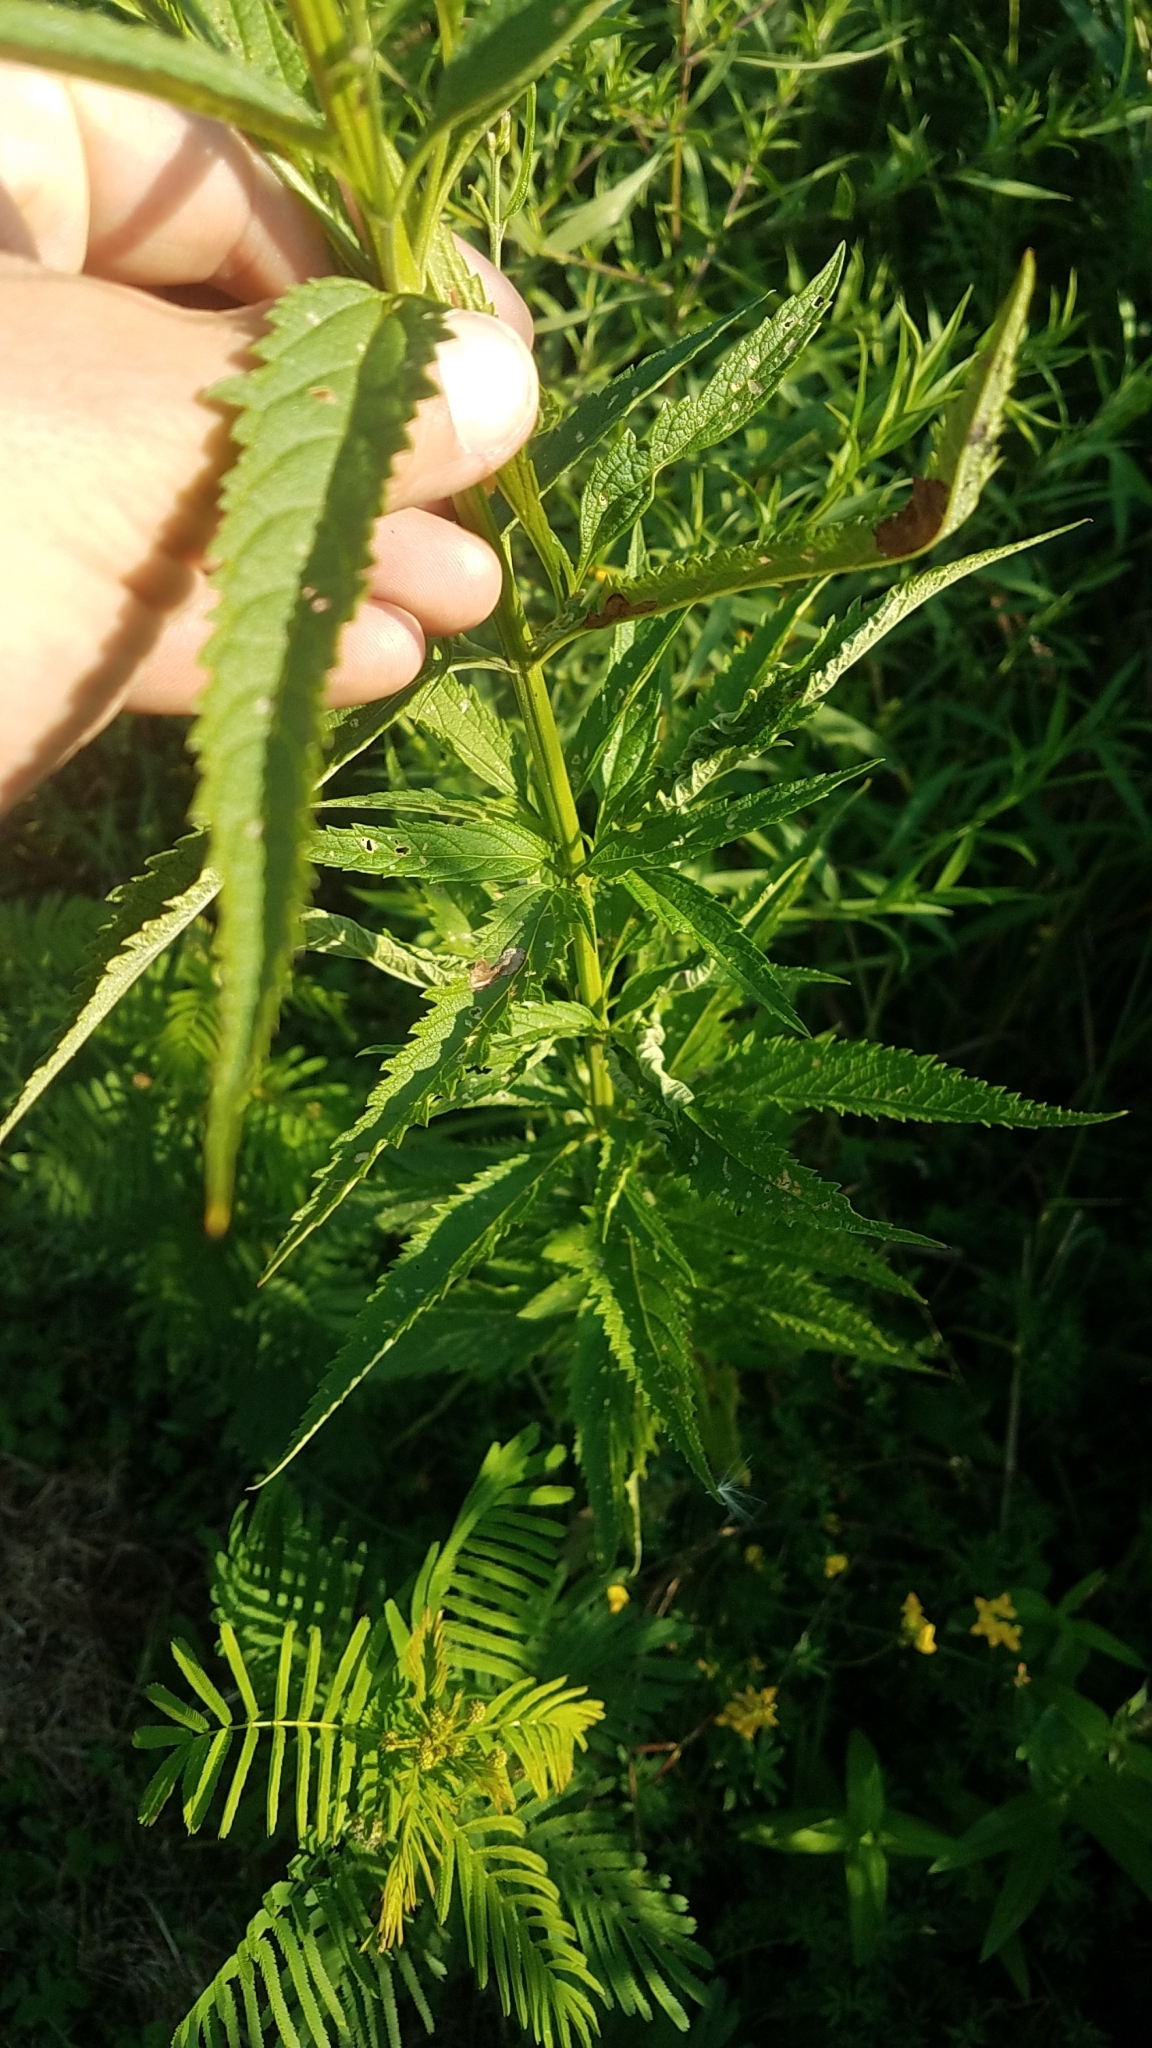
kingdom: Plantae
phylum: Tracheophyta
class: Magnoliopsida
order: Lamiales
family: Verbenaceae
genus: Verbena
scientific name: Verbena hastata
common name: American blue vervain
